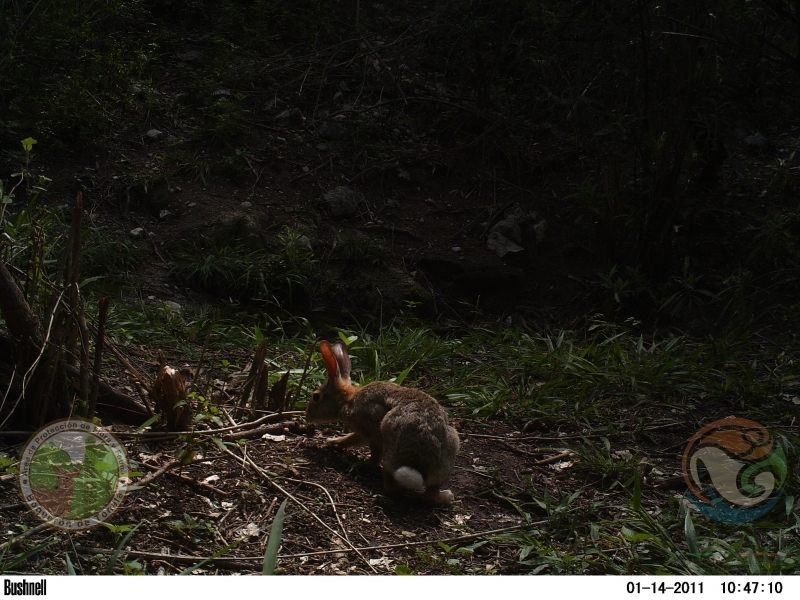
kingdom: Animalia
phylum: Chordata
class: Mammalia
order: Lagomorpha
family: Leporidae
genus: Sylvilagus
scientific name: Sylvilagus floridanus
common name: Eastern cottontail
